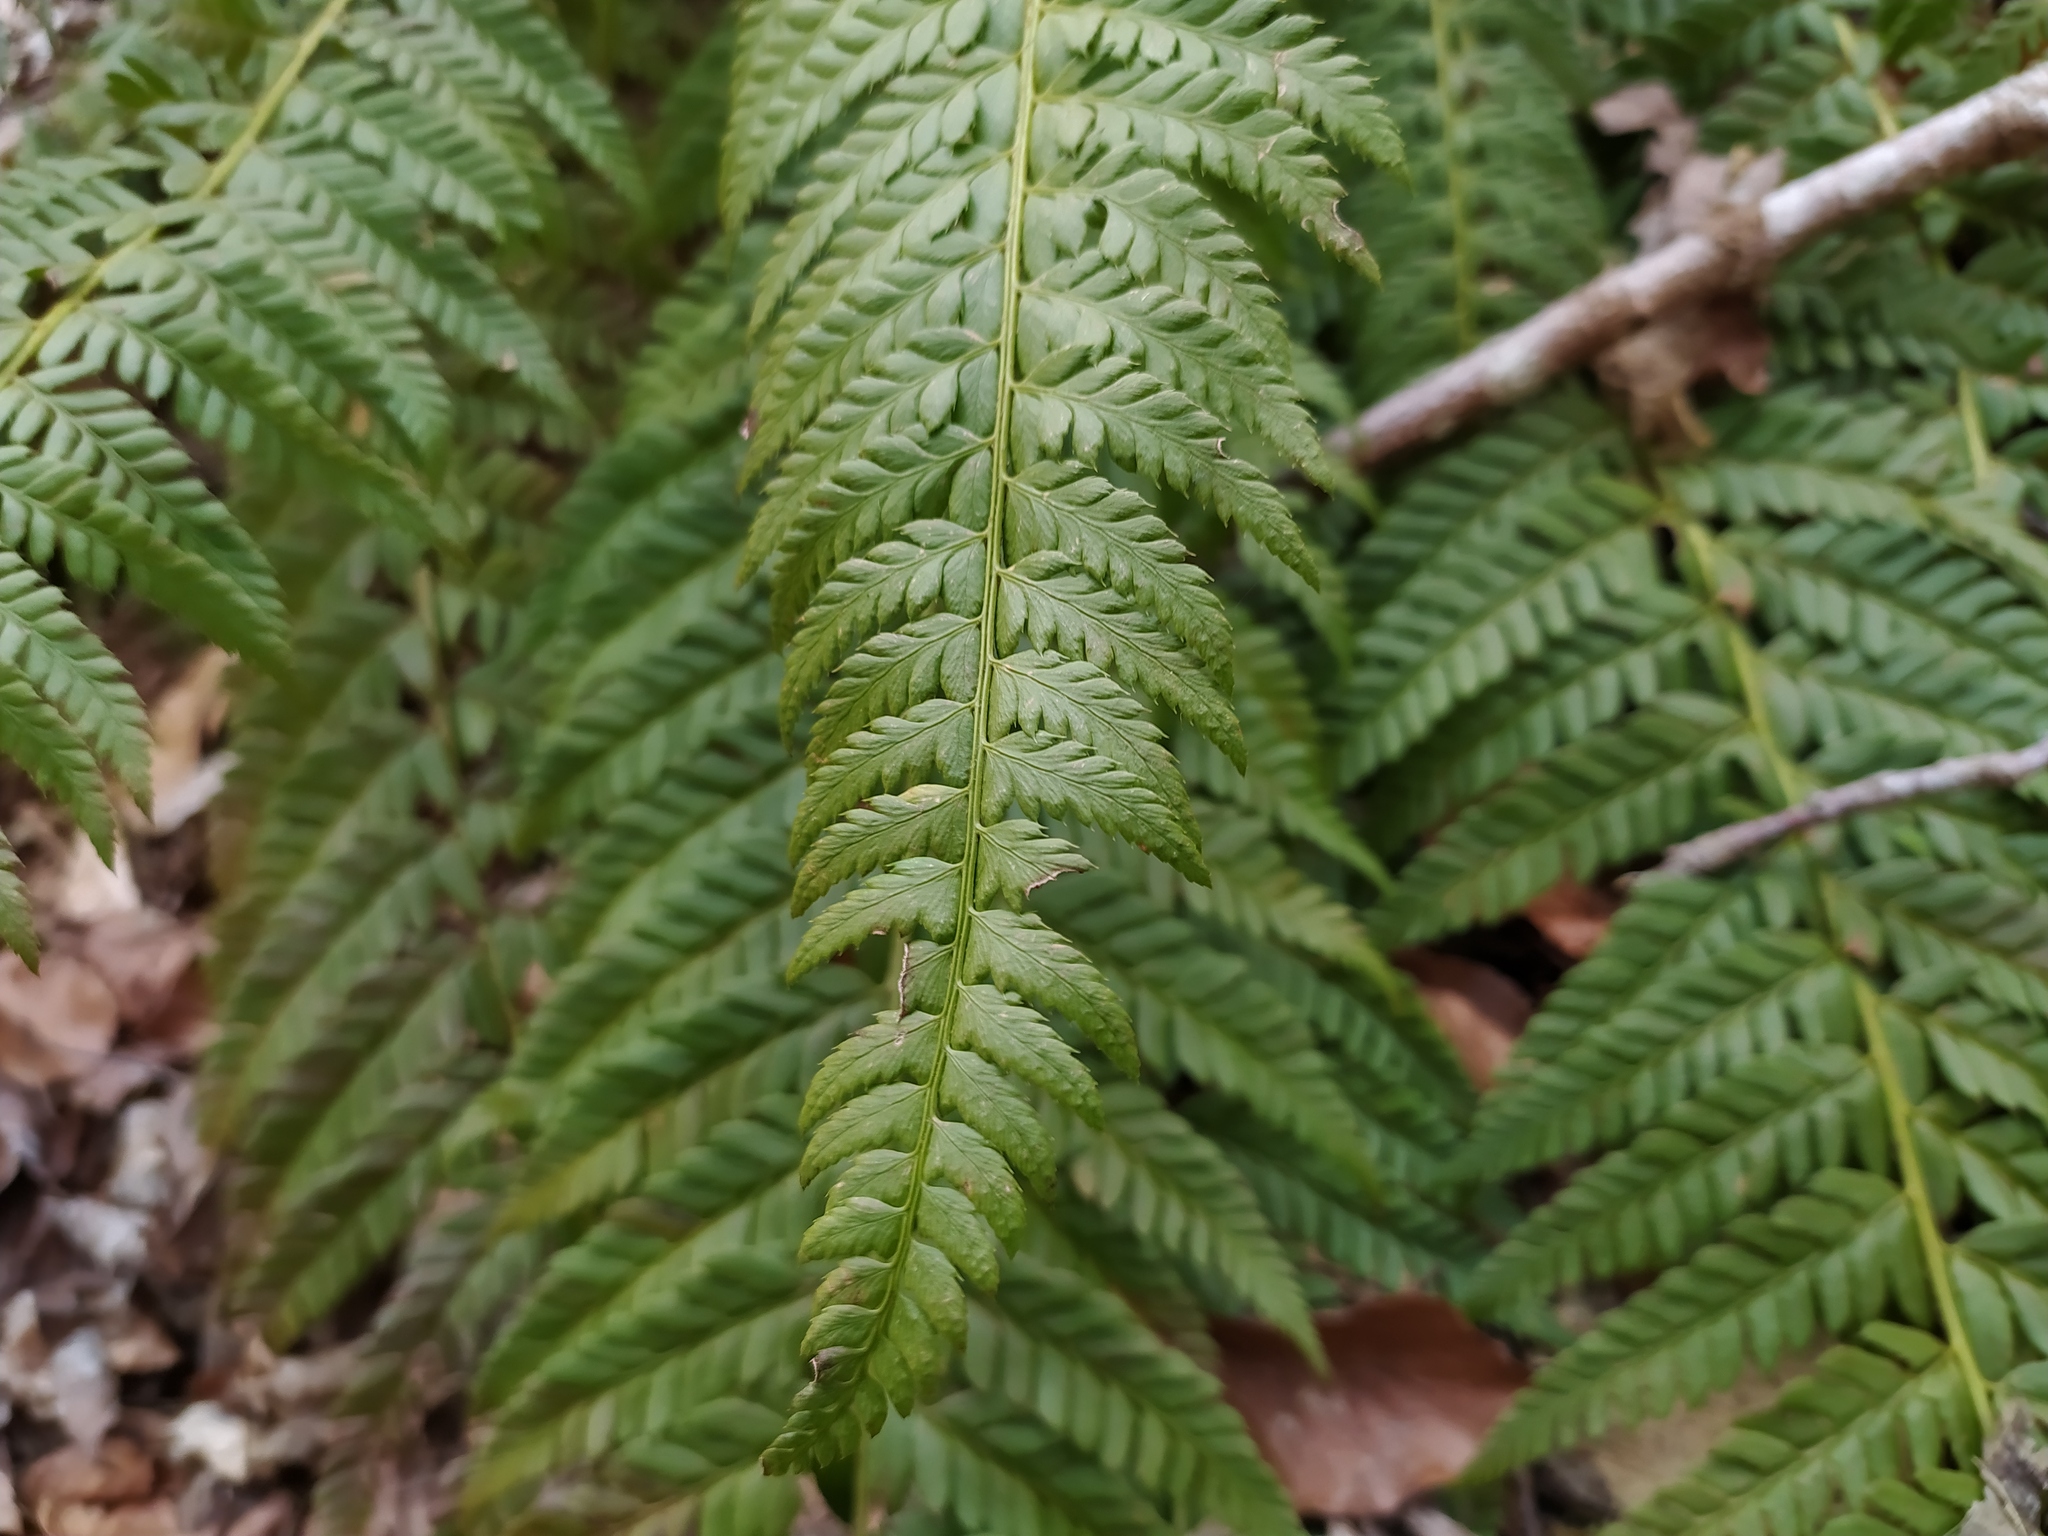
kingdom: Plantae
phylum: Tracheophyta
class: Polypodiopsida
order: Polypodiales
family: Dryopteridaceae
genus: Polystichum
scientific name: Polystichum aculeatum
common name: Hard shield-fern
